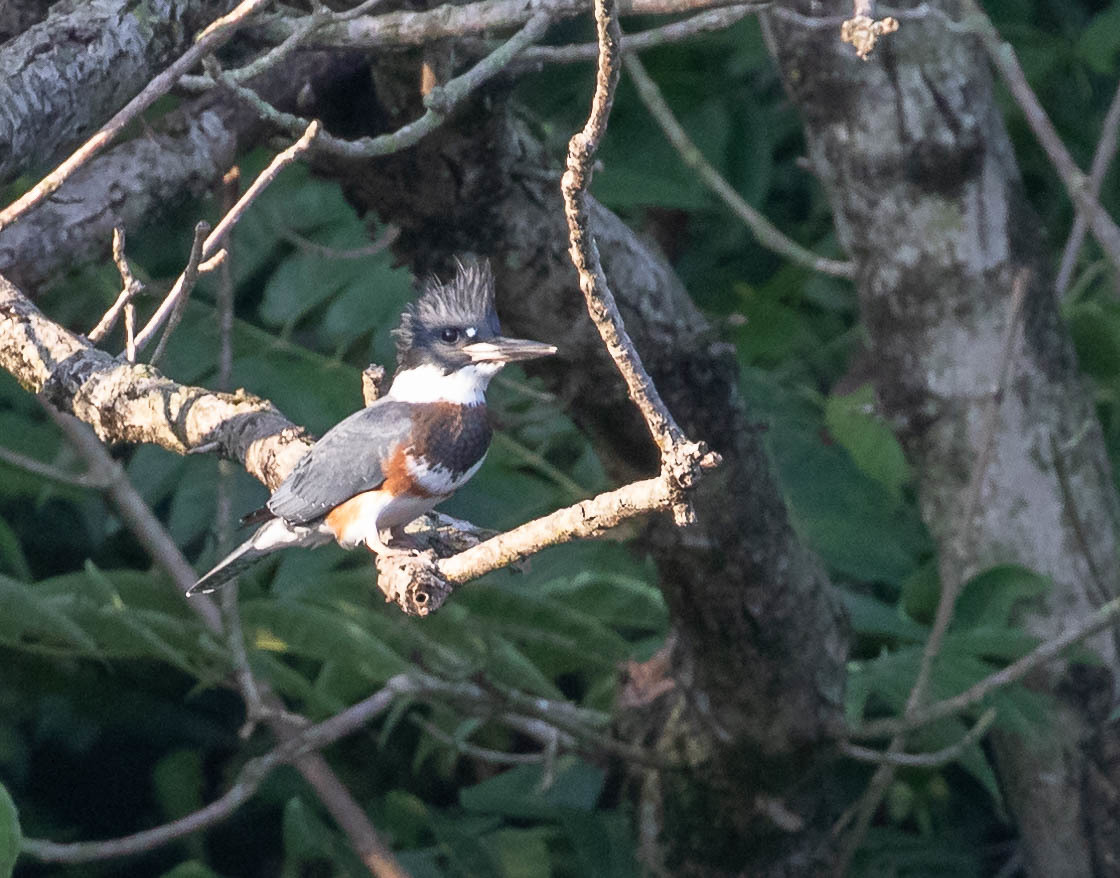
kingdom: Animalia
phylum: Chordata
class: Aves
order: Coraciiformes
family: Alcedinidae
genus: Megaceryle
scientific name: Megaceryle alcyon
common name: Belted kingfisher
